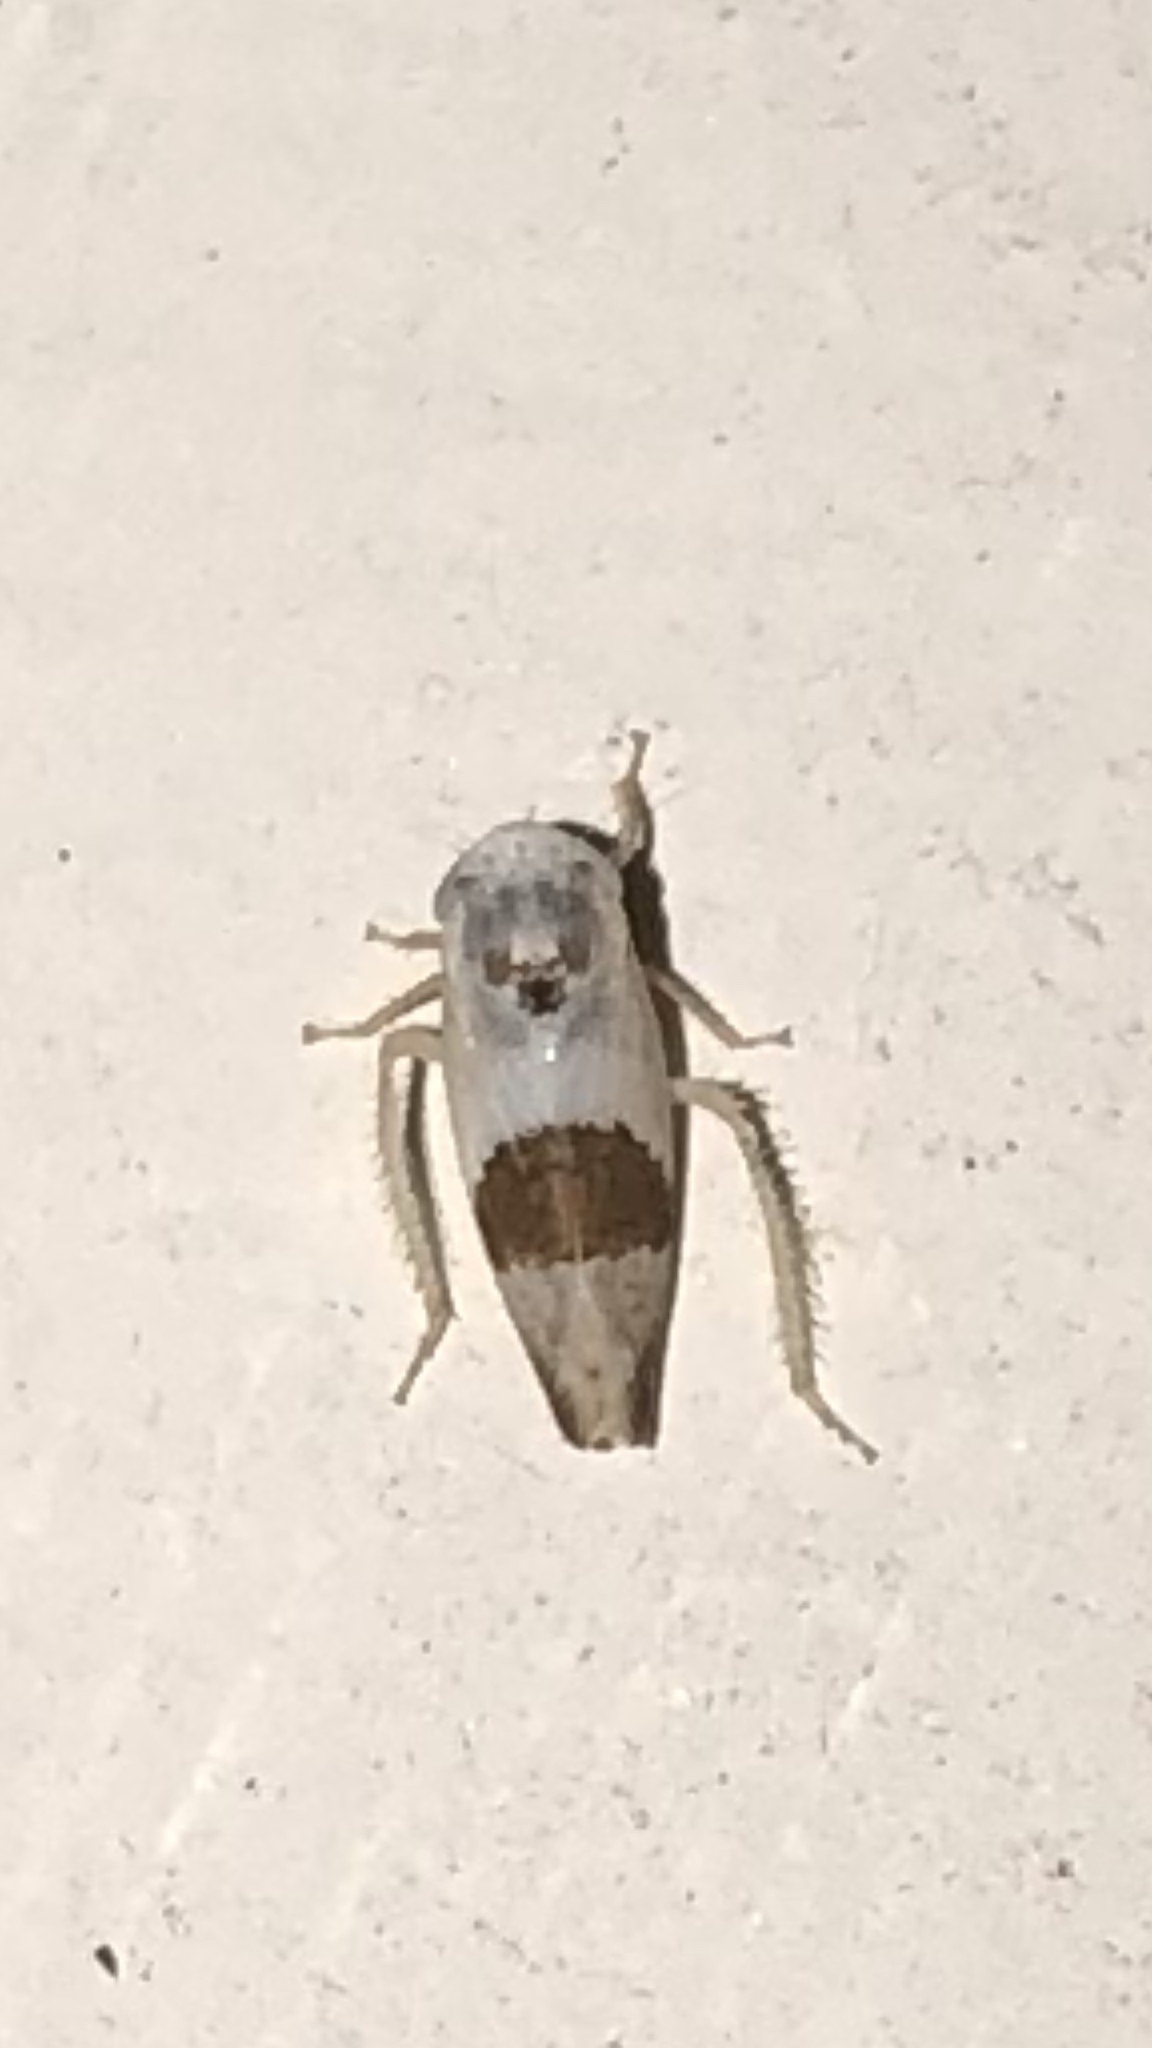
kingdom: Animalia
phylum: Arthropoda
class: Insecta
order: Hemiptera
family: Cicadellidae
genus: Norvellina
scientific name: Norvellina seminuda
